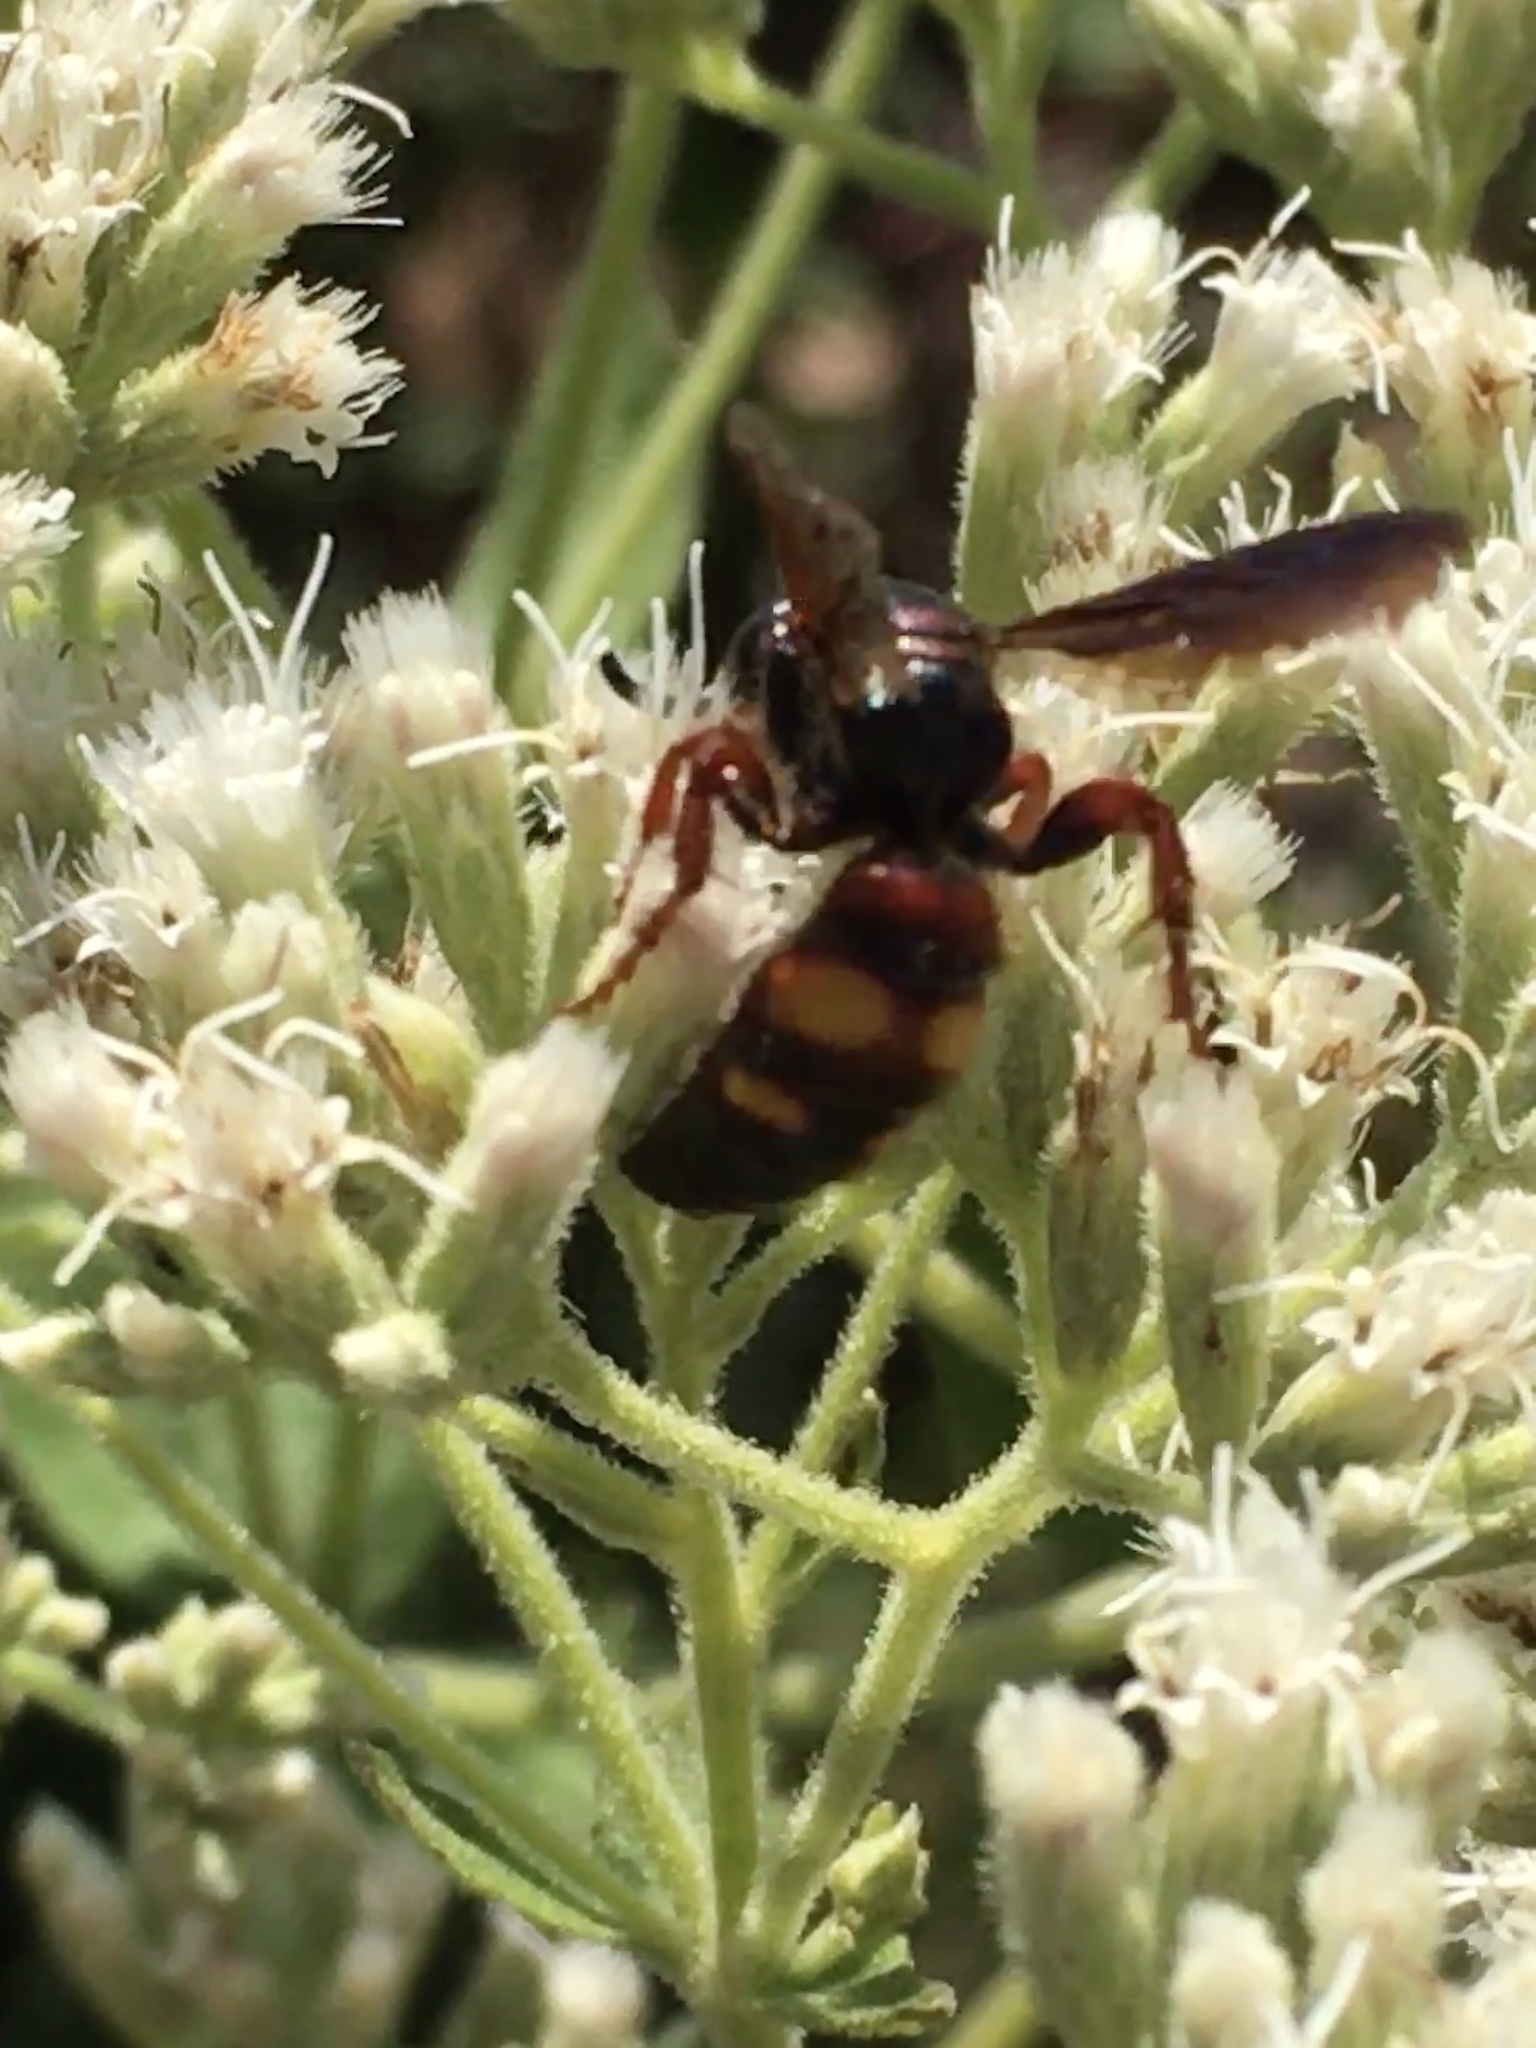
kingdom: Animalia
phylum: Arthropoda
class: Insecta
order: Hymenoptera
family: Scoliidae
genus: Scolia
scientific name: Scolia nobilitata
